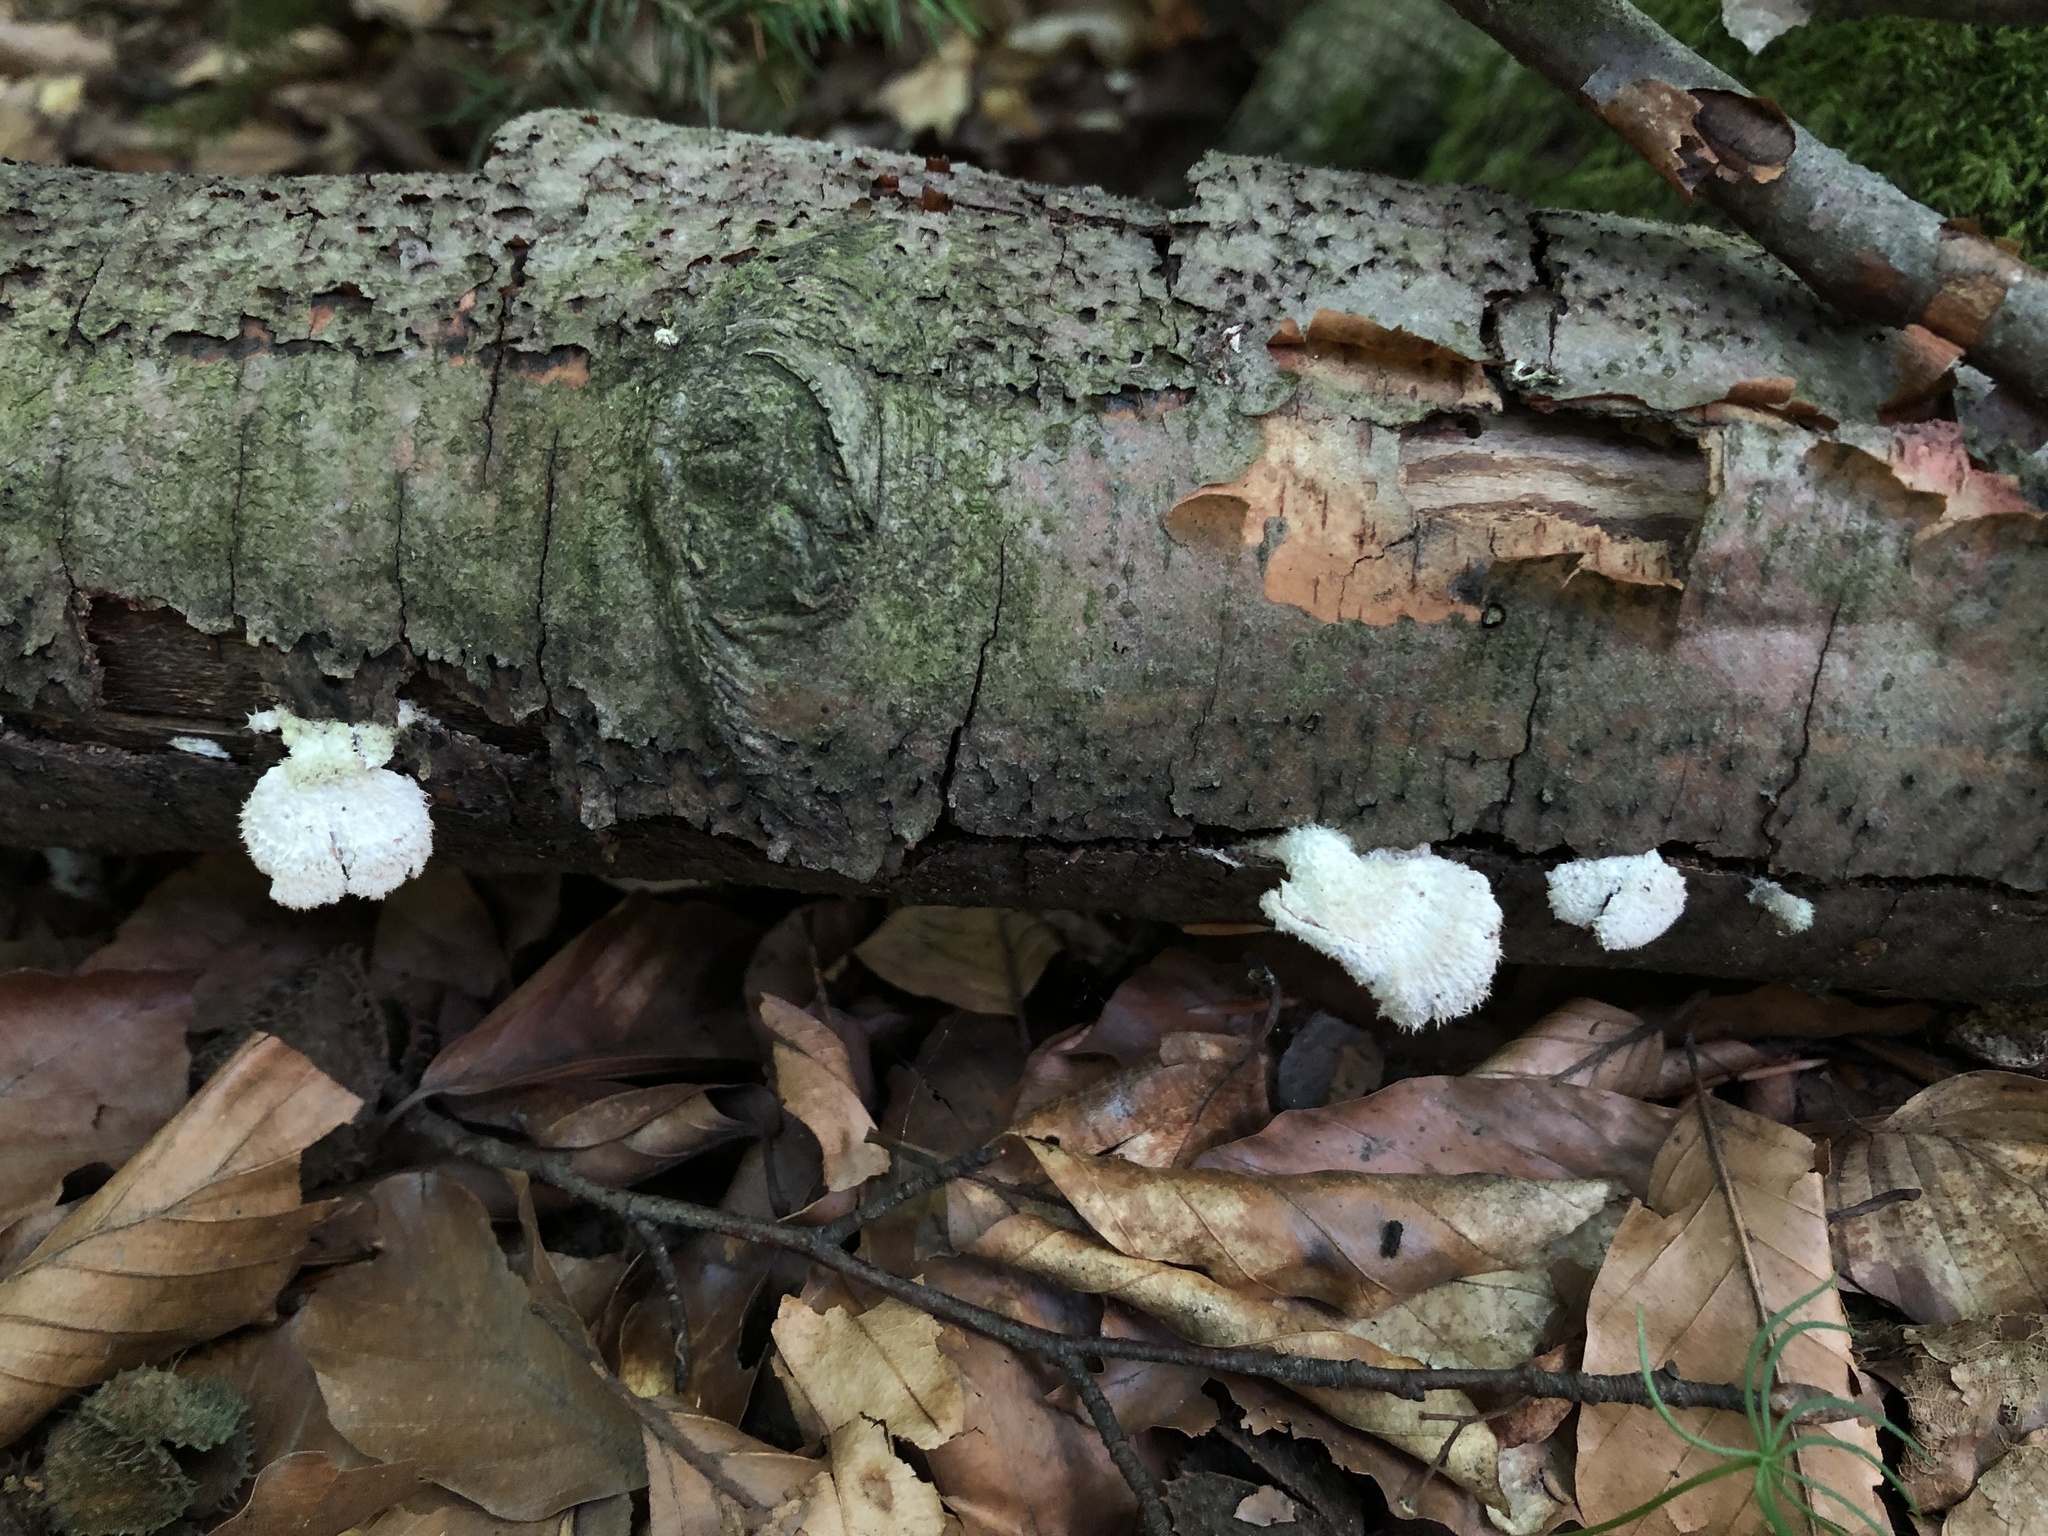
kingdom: Fungi
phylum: Basidiomycota
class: Agaricomycetes
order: Agaricales
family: Schizophyllaceae
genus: Schizophyllum
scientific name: Schizophyllum commune
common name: Common porecrust
